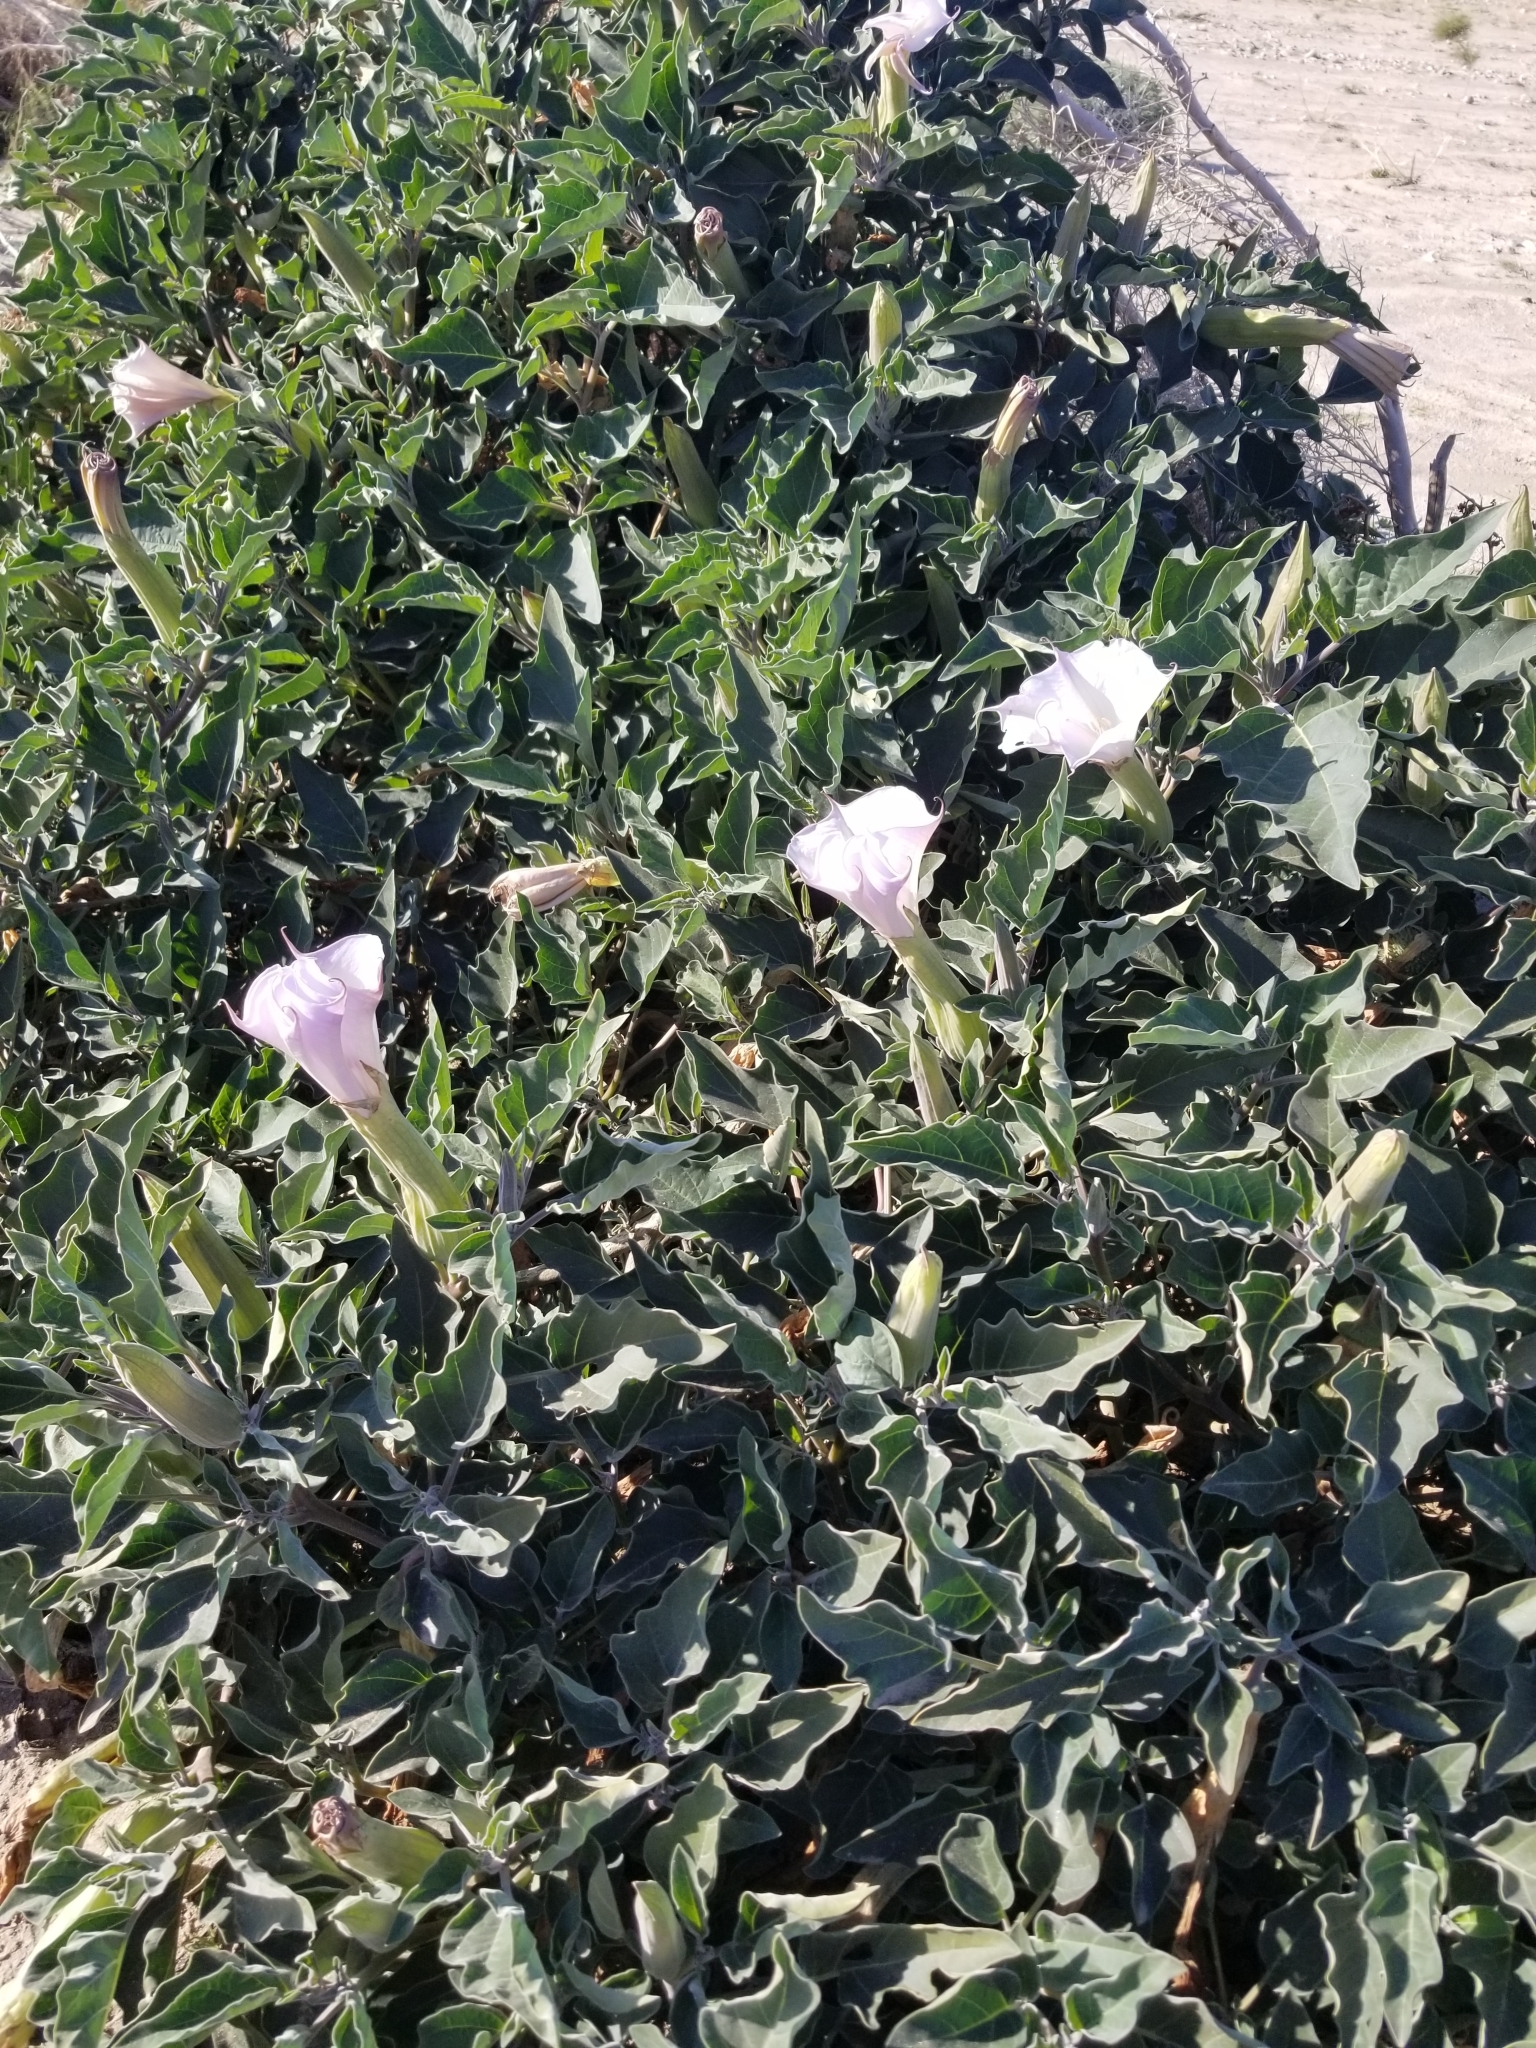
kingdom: Plantae
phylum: Tracheophyta
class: Magnoliopsida
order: Solanales
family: Solanaceae
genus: Datura
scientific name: Datura wrightii
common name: Sacred thorn-apple
